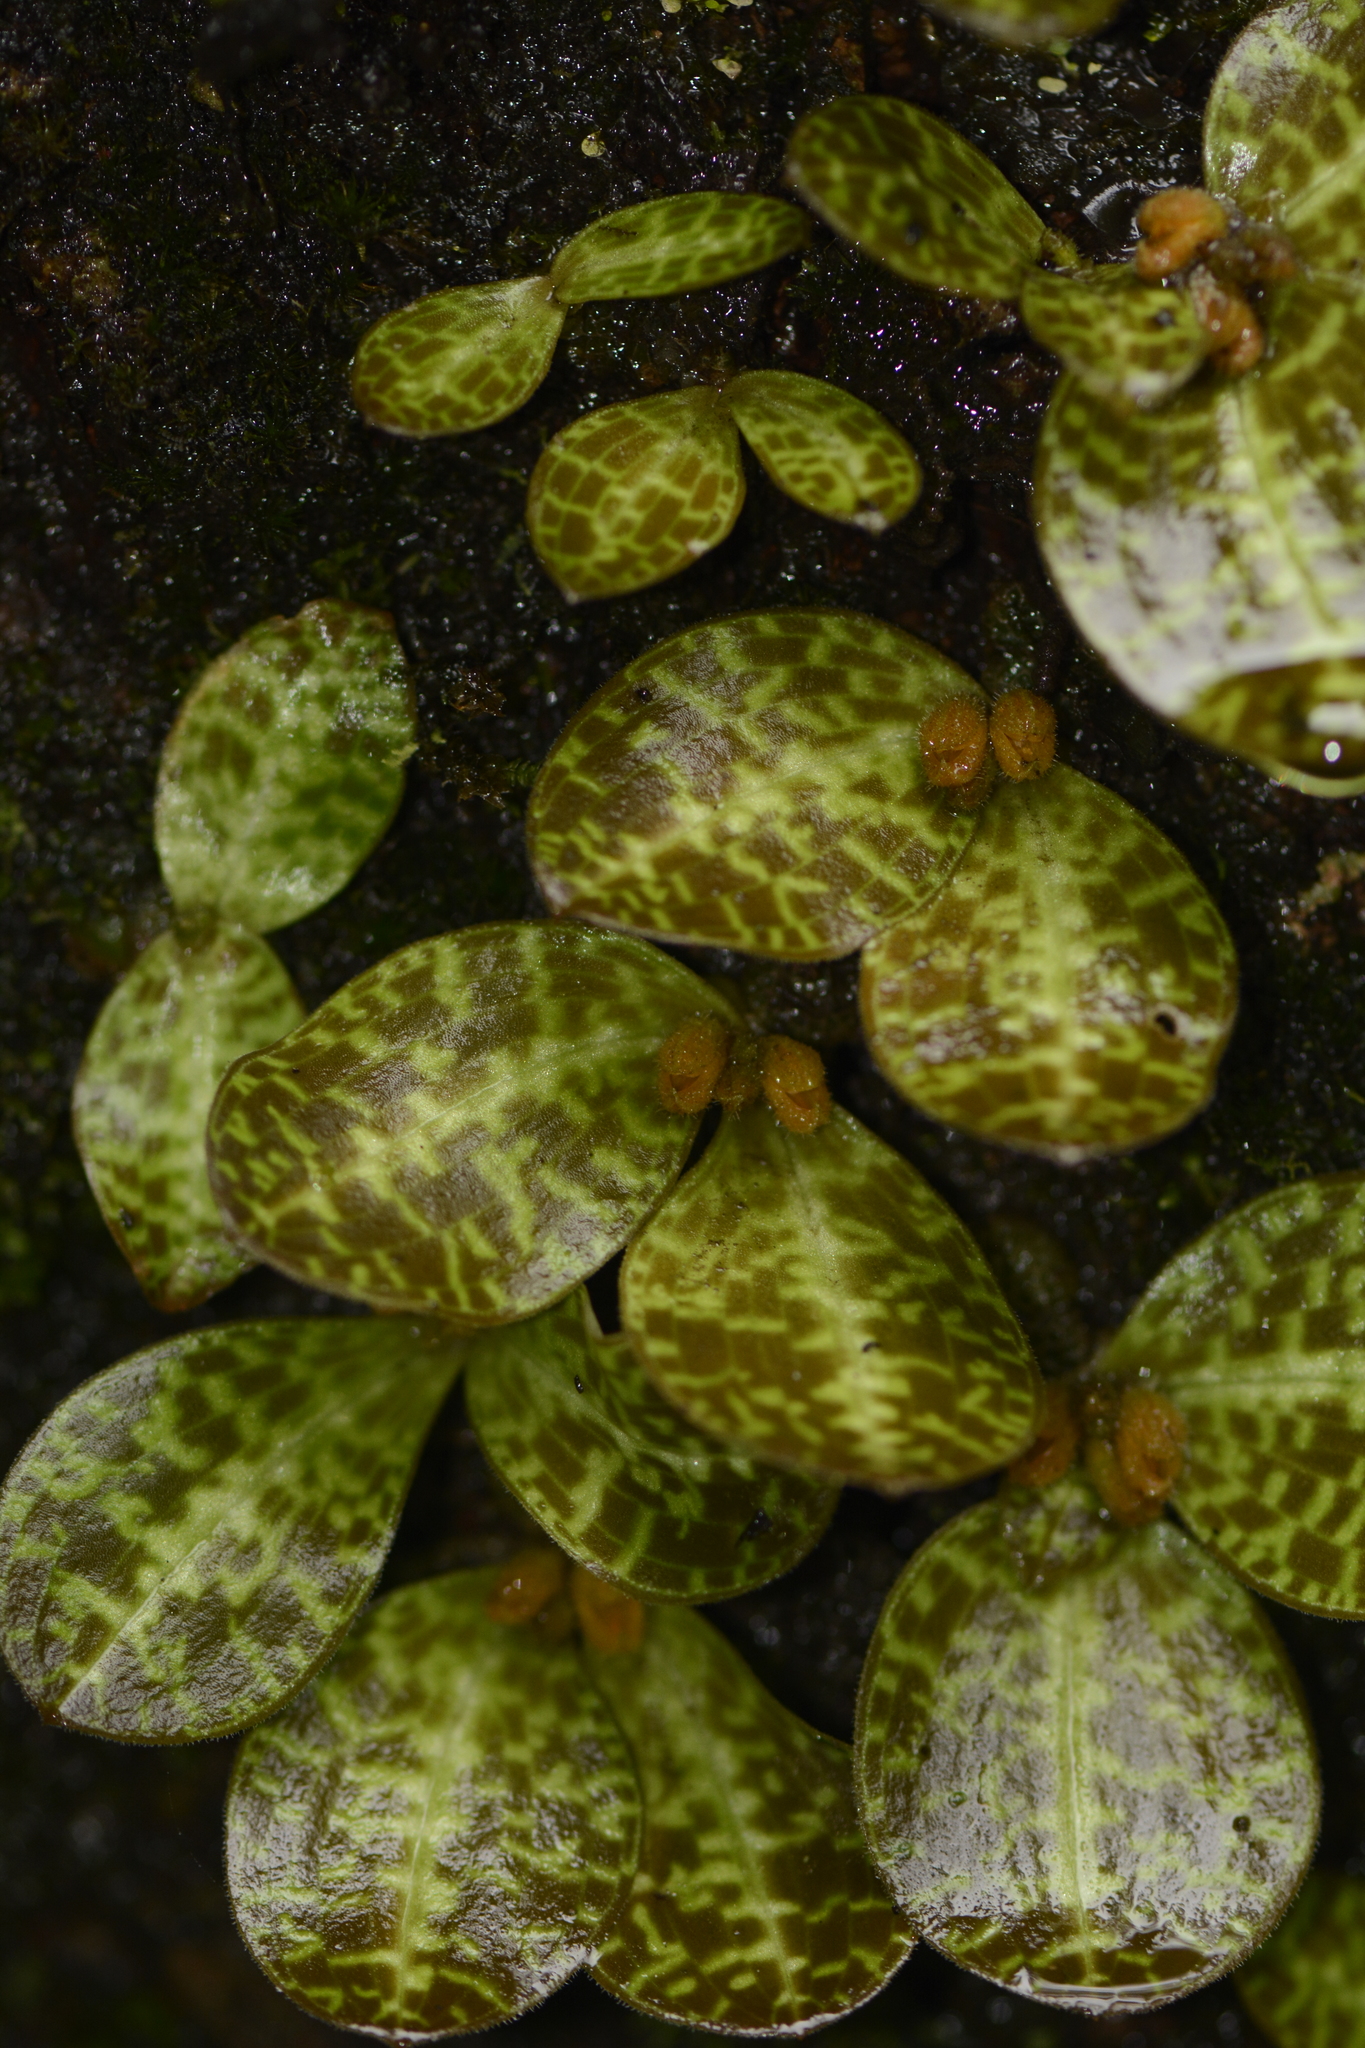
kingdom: Plantae
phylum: Tracheophyta
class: Liliopsida
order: Asparagales
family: Orchidaceae
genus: Porpax
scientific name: Porpax jerdoniana
